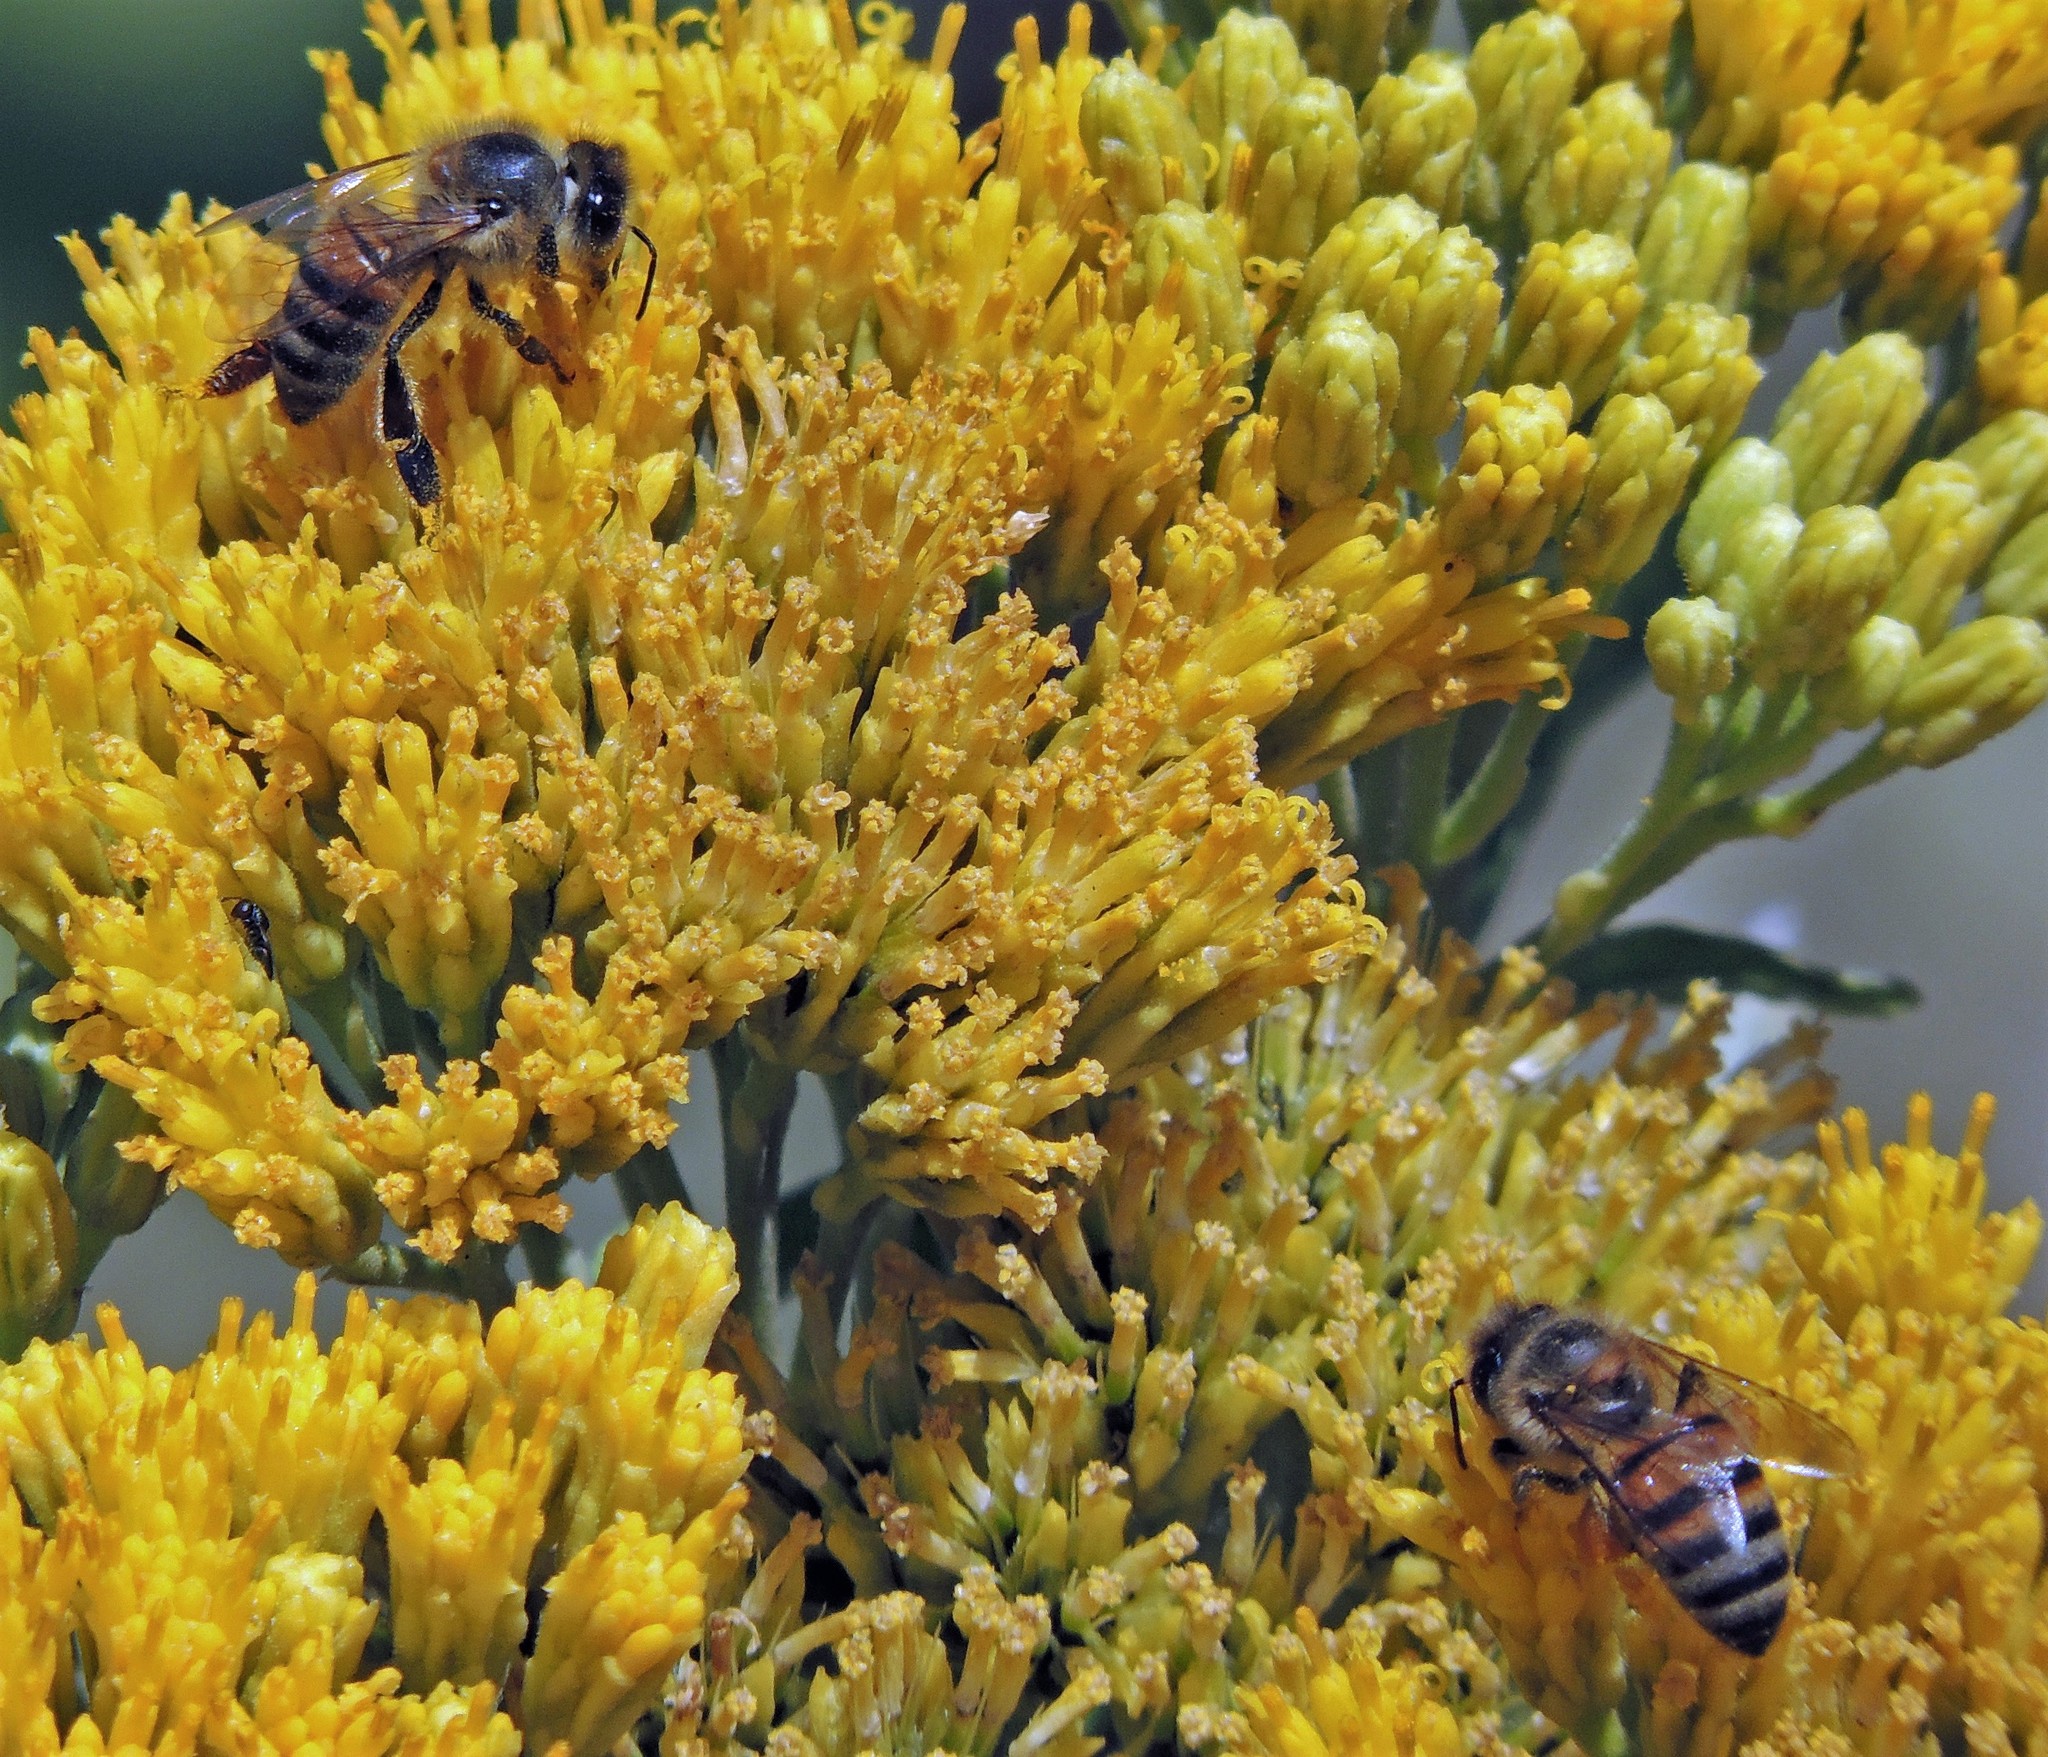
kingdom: Animalia
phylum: Arthropoda
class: Insecta
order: Hymenoptera
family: Apidae
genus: Apis
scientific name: Apis mellifera
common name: Honey bee
